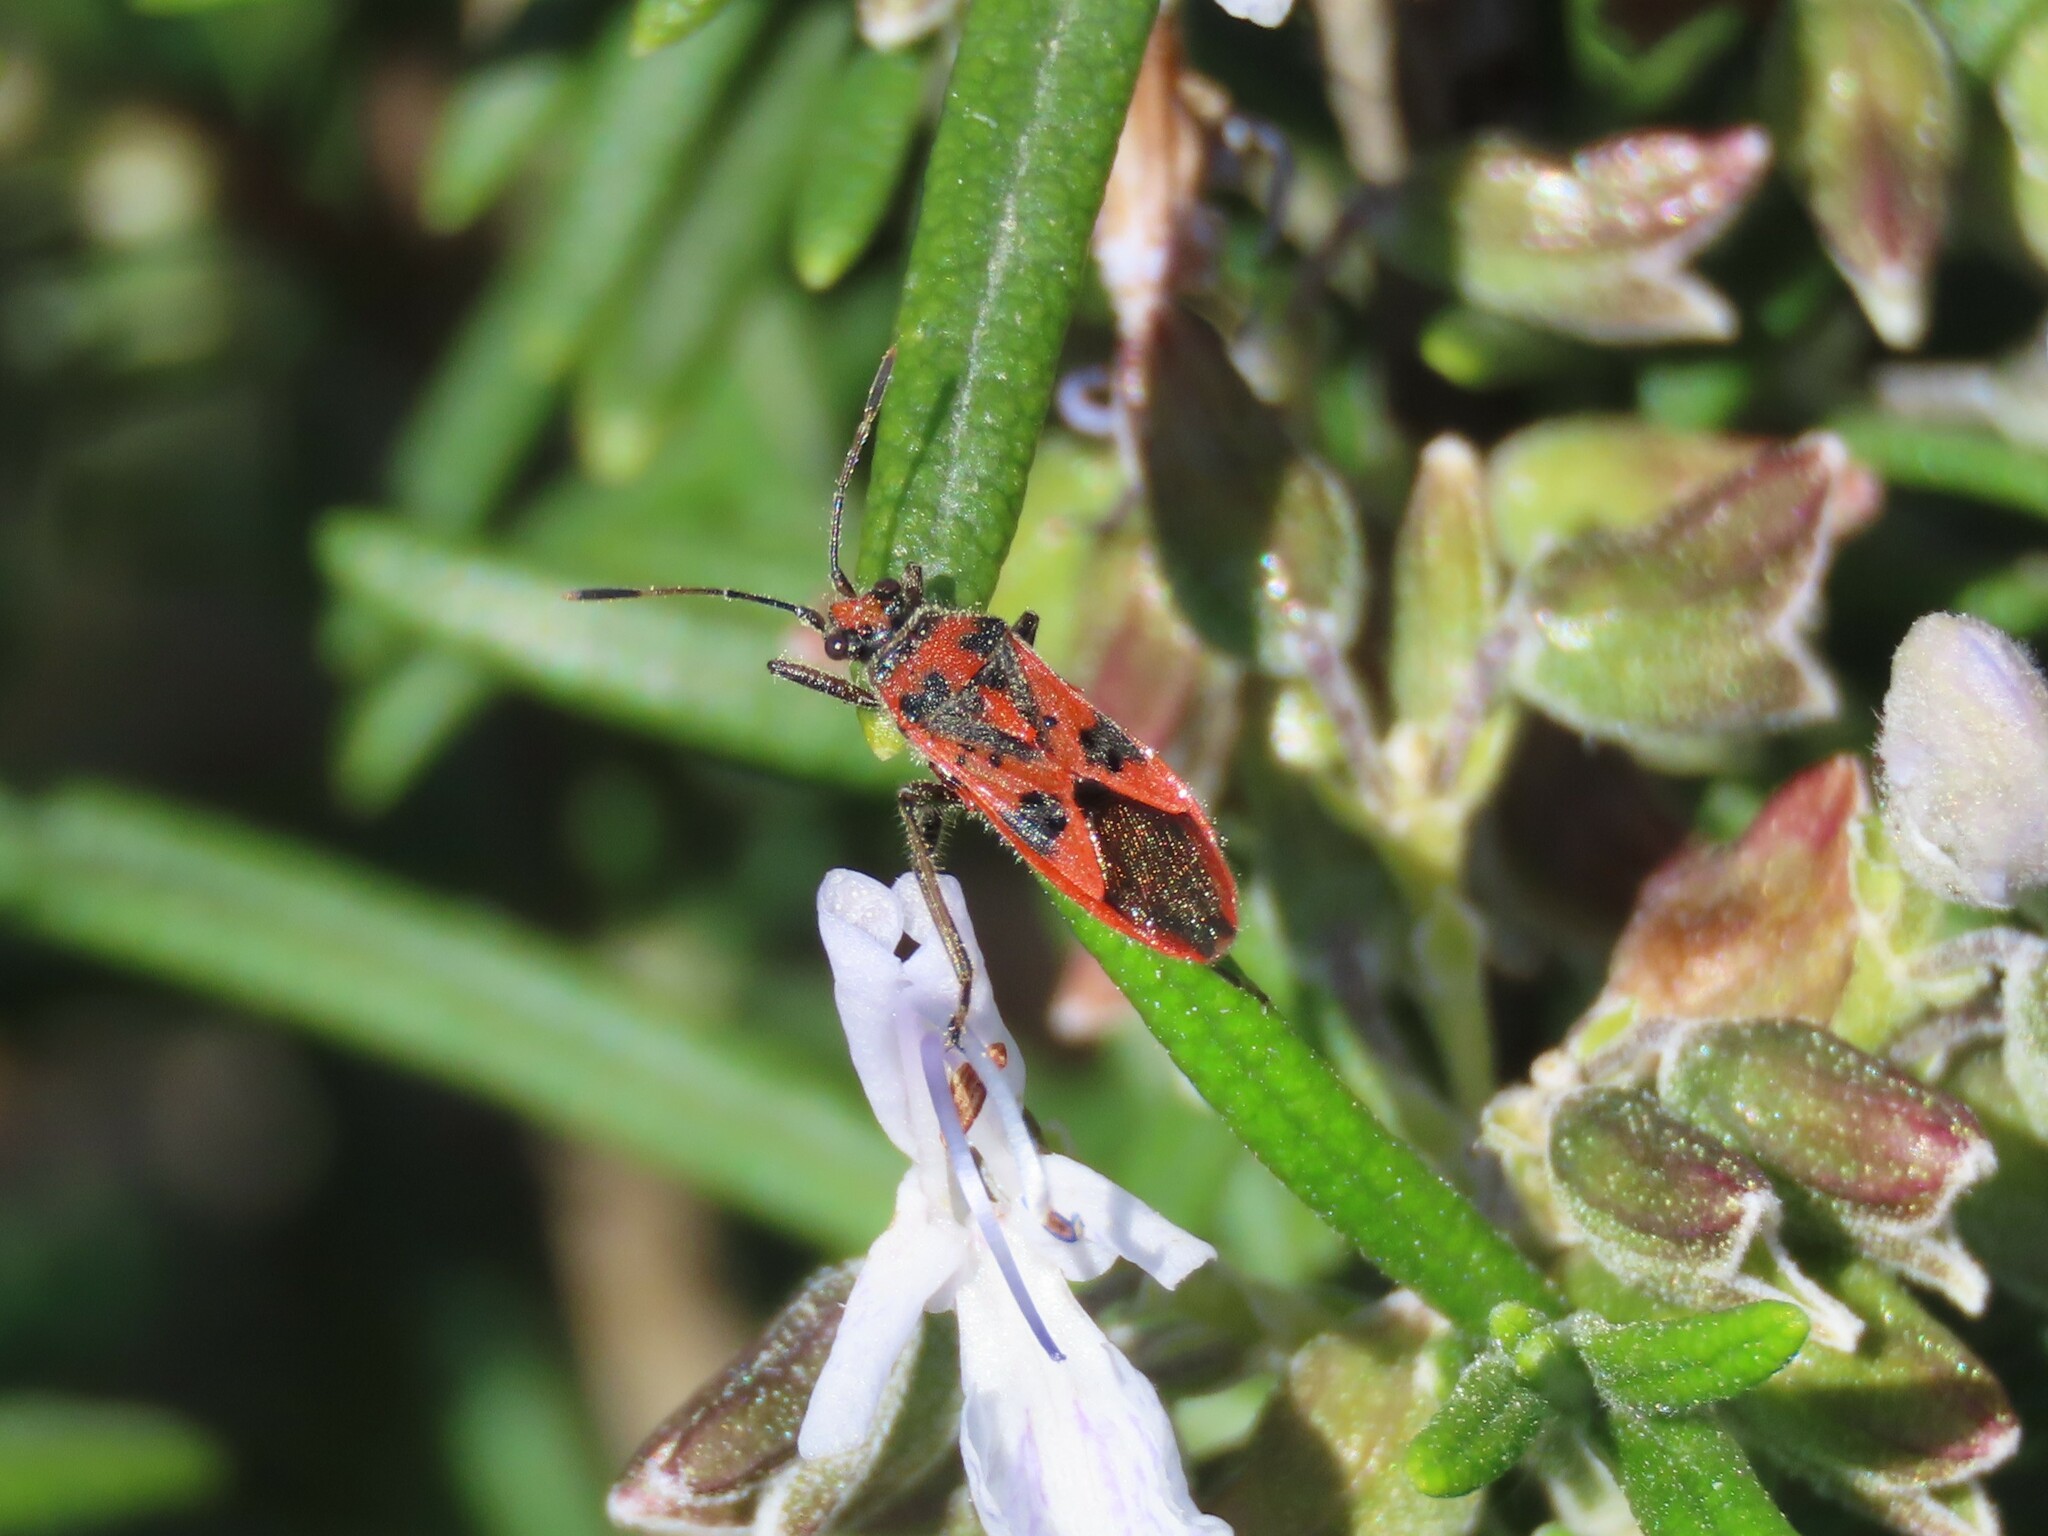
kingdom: Animalia
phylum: Arthropoda
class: Insecta
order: Hemiptera
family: Rhopalidae
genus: Corizus
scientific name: Corizus hyoscyami
